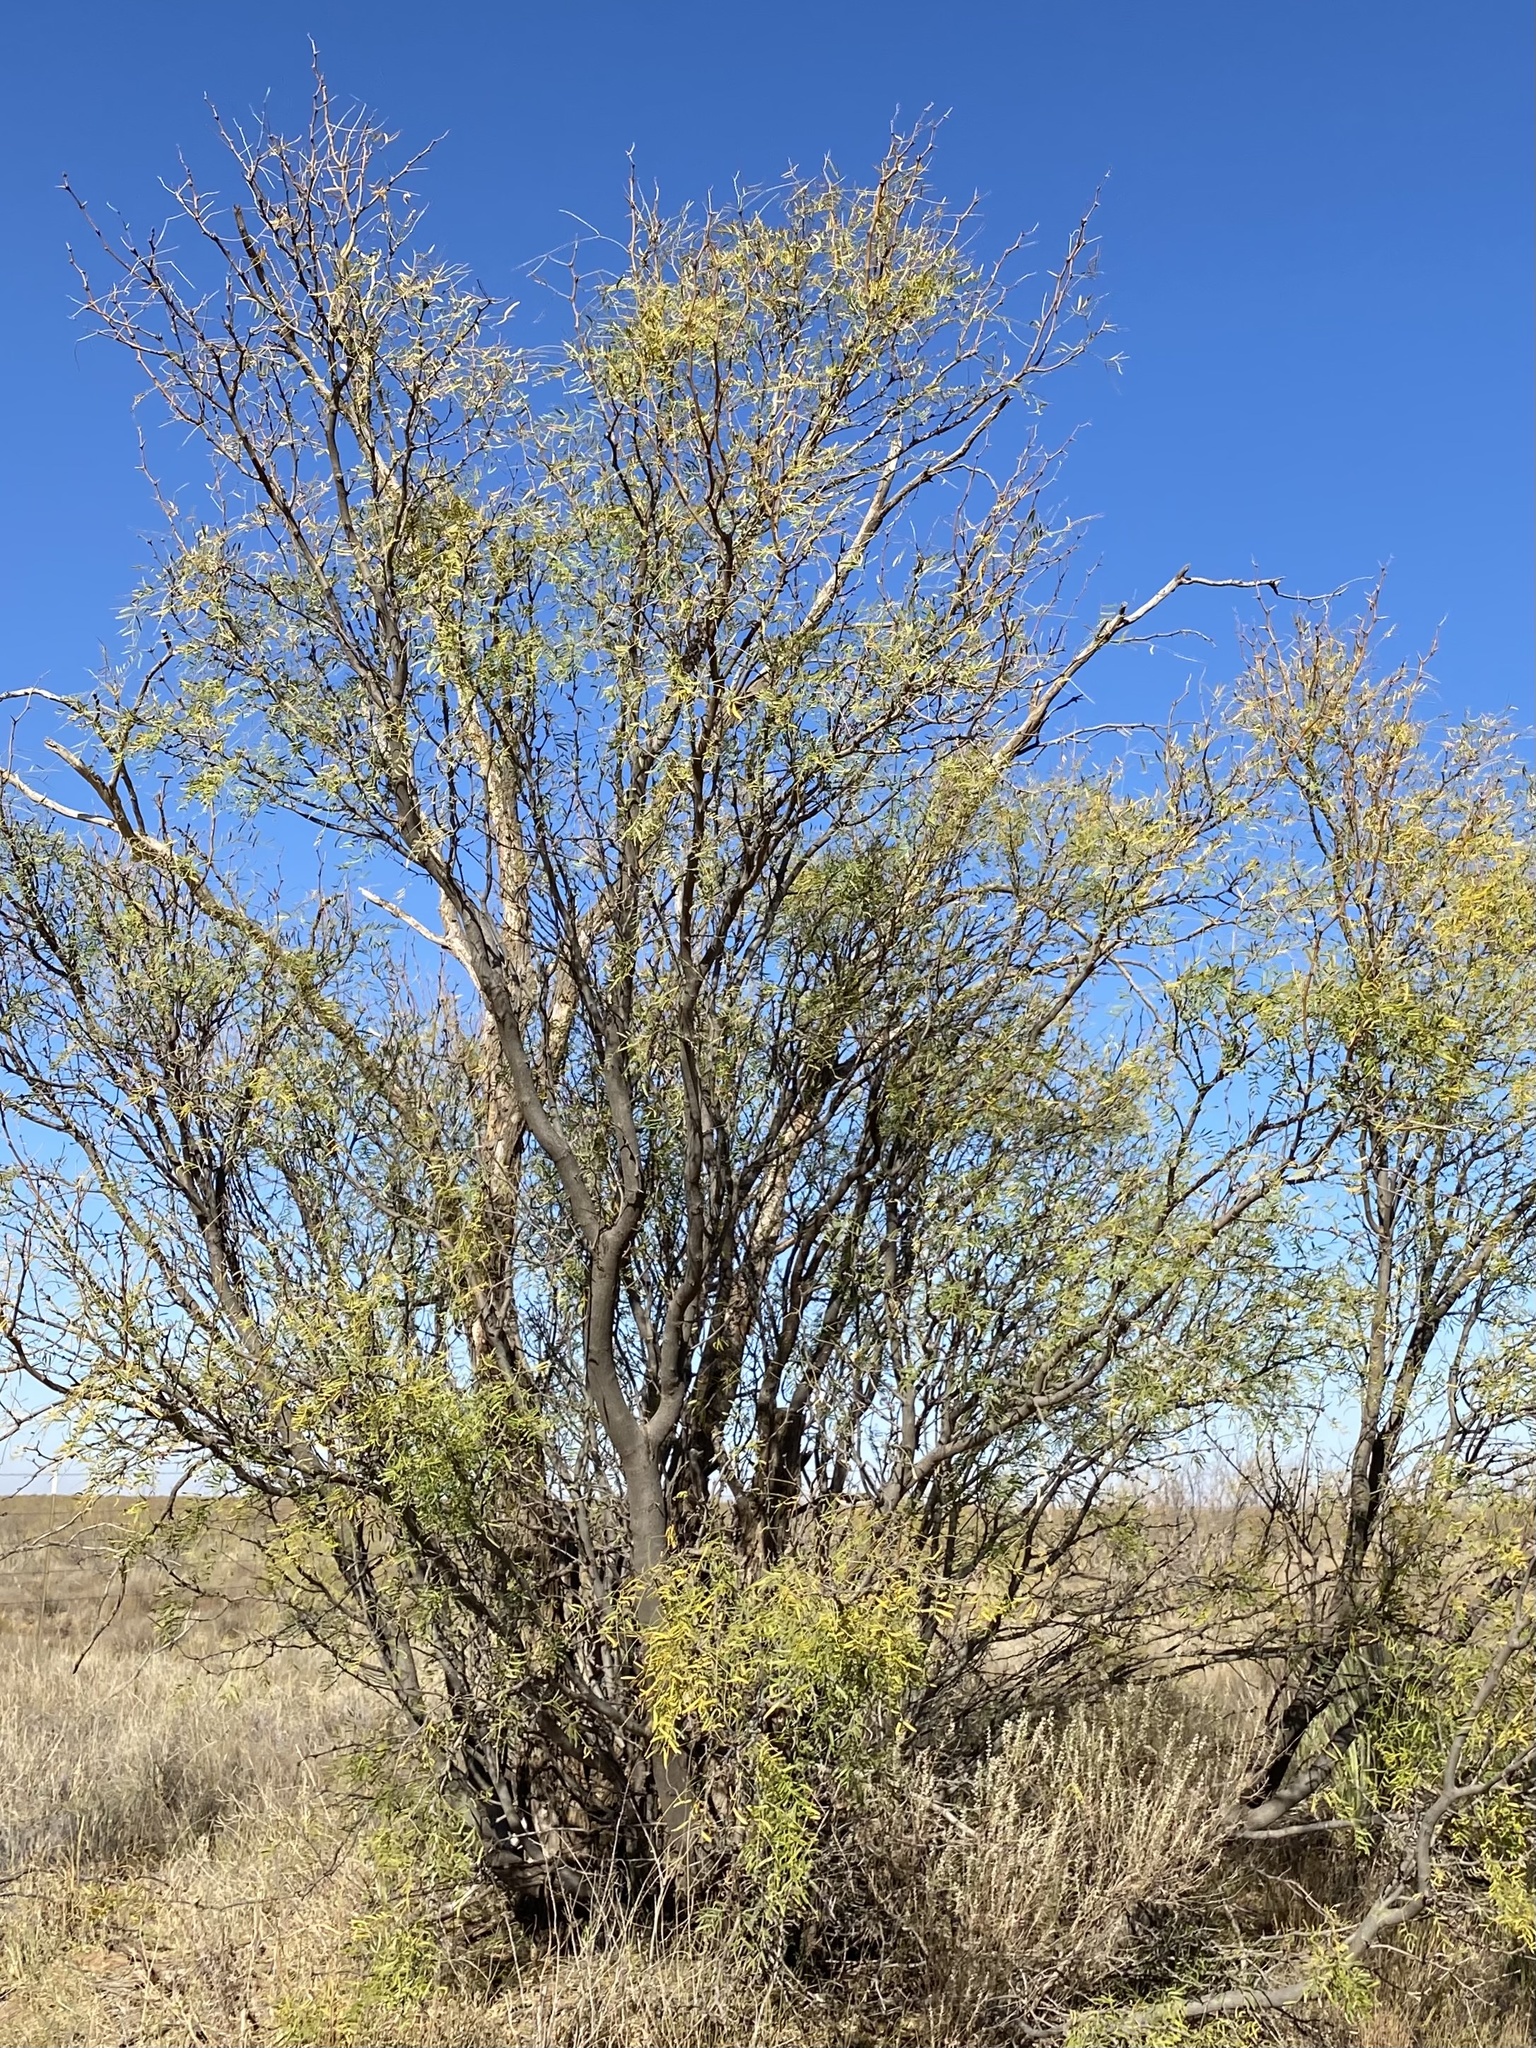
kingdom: Plantae
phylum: Tracheophyta
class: Magnoliopsida
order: Fabales
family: Fabaceae
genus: Prosopis
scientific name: Prosopis glandulosa
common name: Honey mesquite
